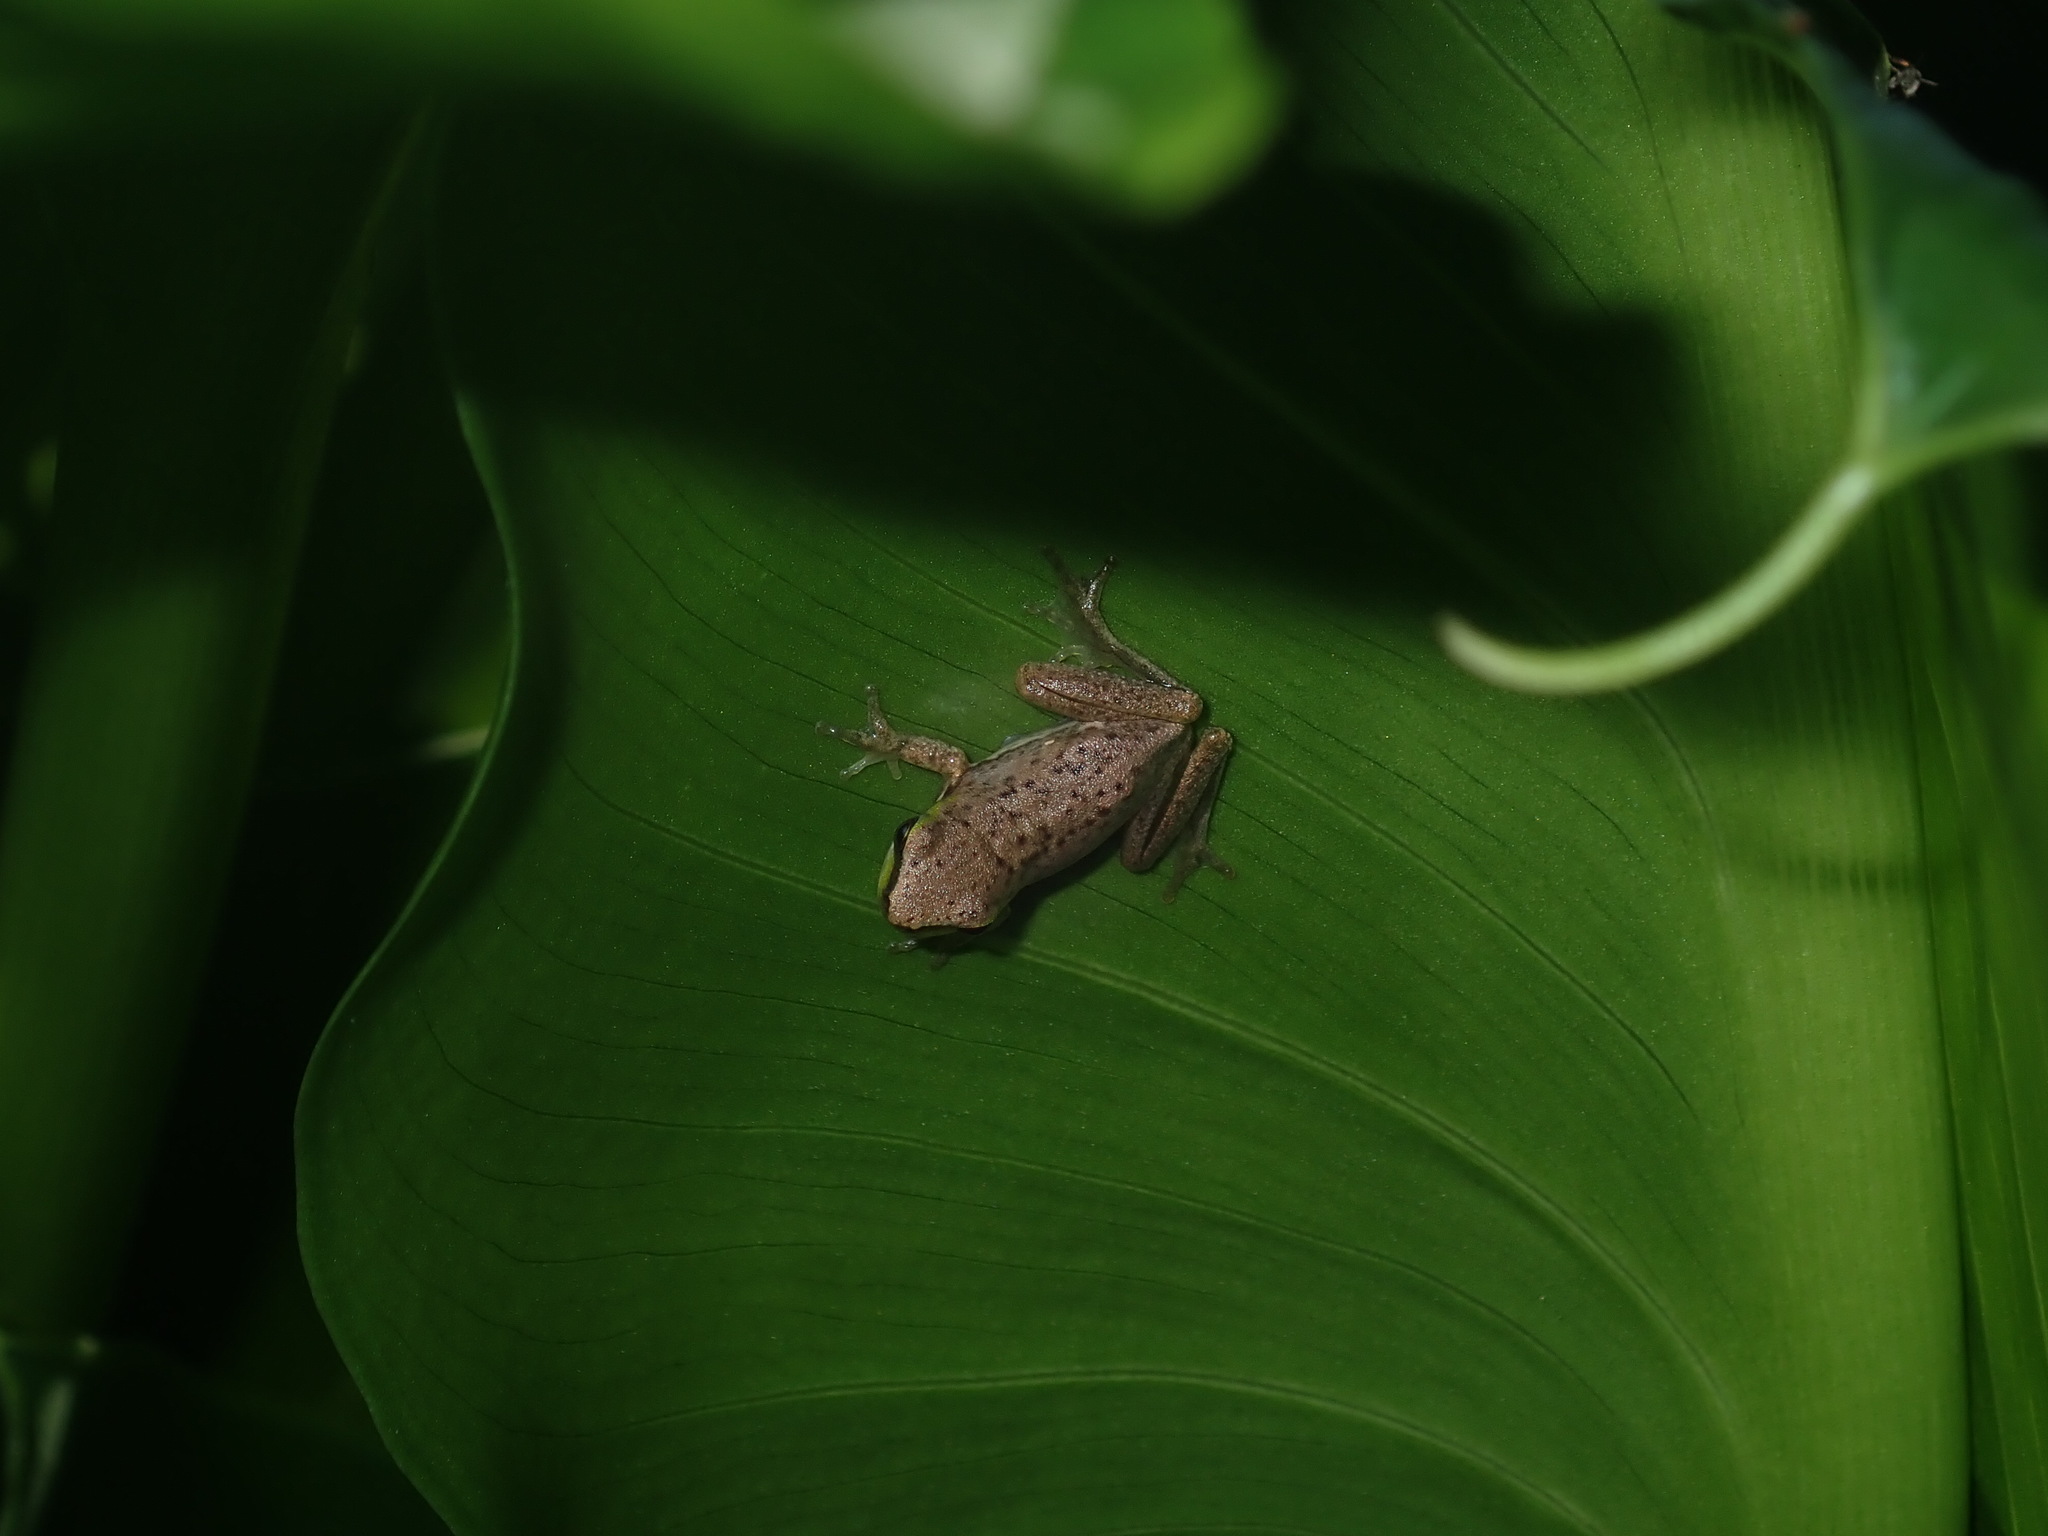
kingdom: Animalia
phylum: Chordata
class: Amphibia
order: Anura
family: Pelodryadidae
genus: Litoria
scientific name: Litoria fallax
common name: Eastern dwarf treefrog
